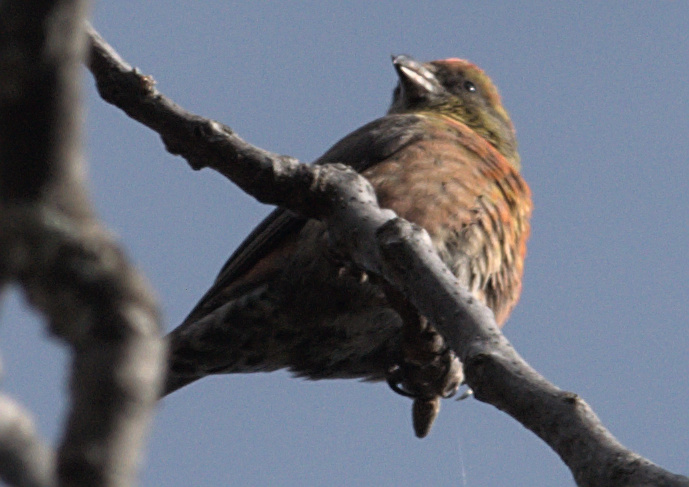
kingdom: Animalia
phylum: Chordata
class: Aves
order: Passeriformes
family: Fringillidae
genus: Loxia
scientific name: Loxia curvirostra
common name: Red crossbill
